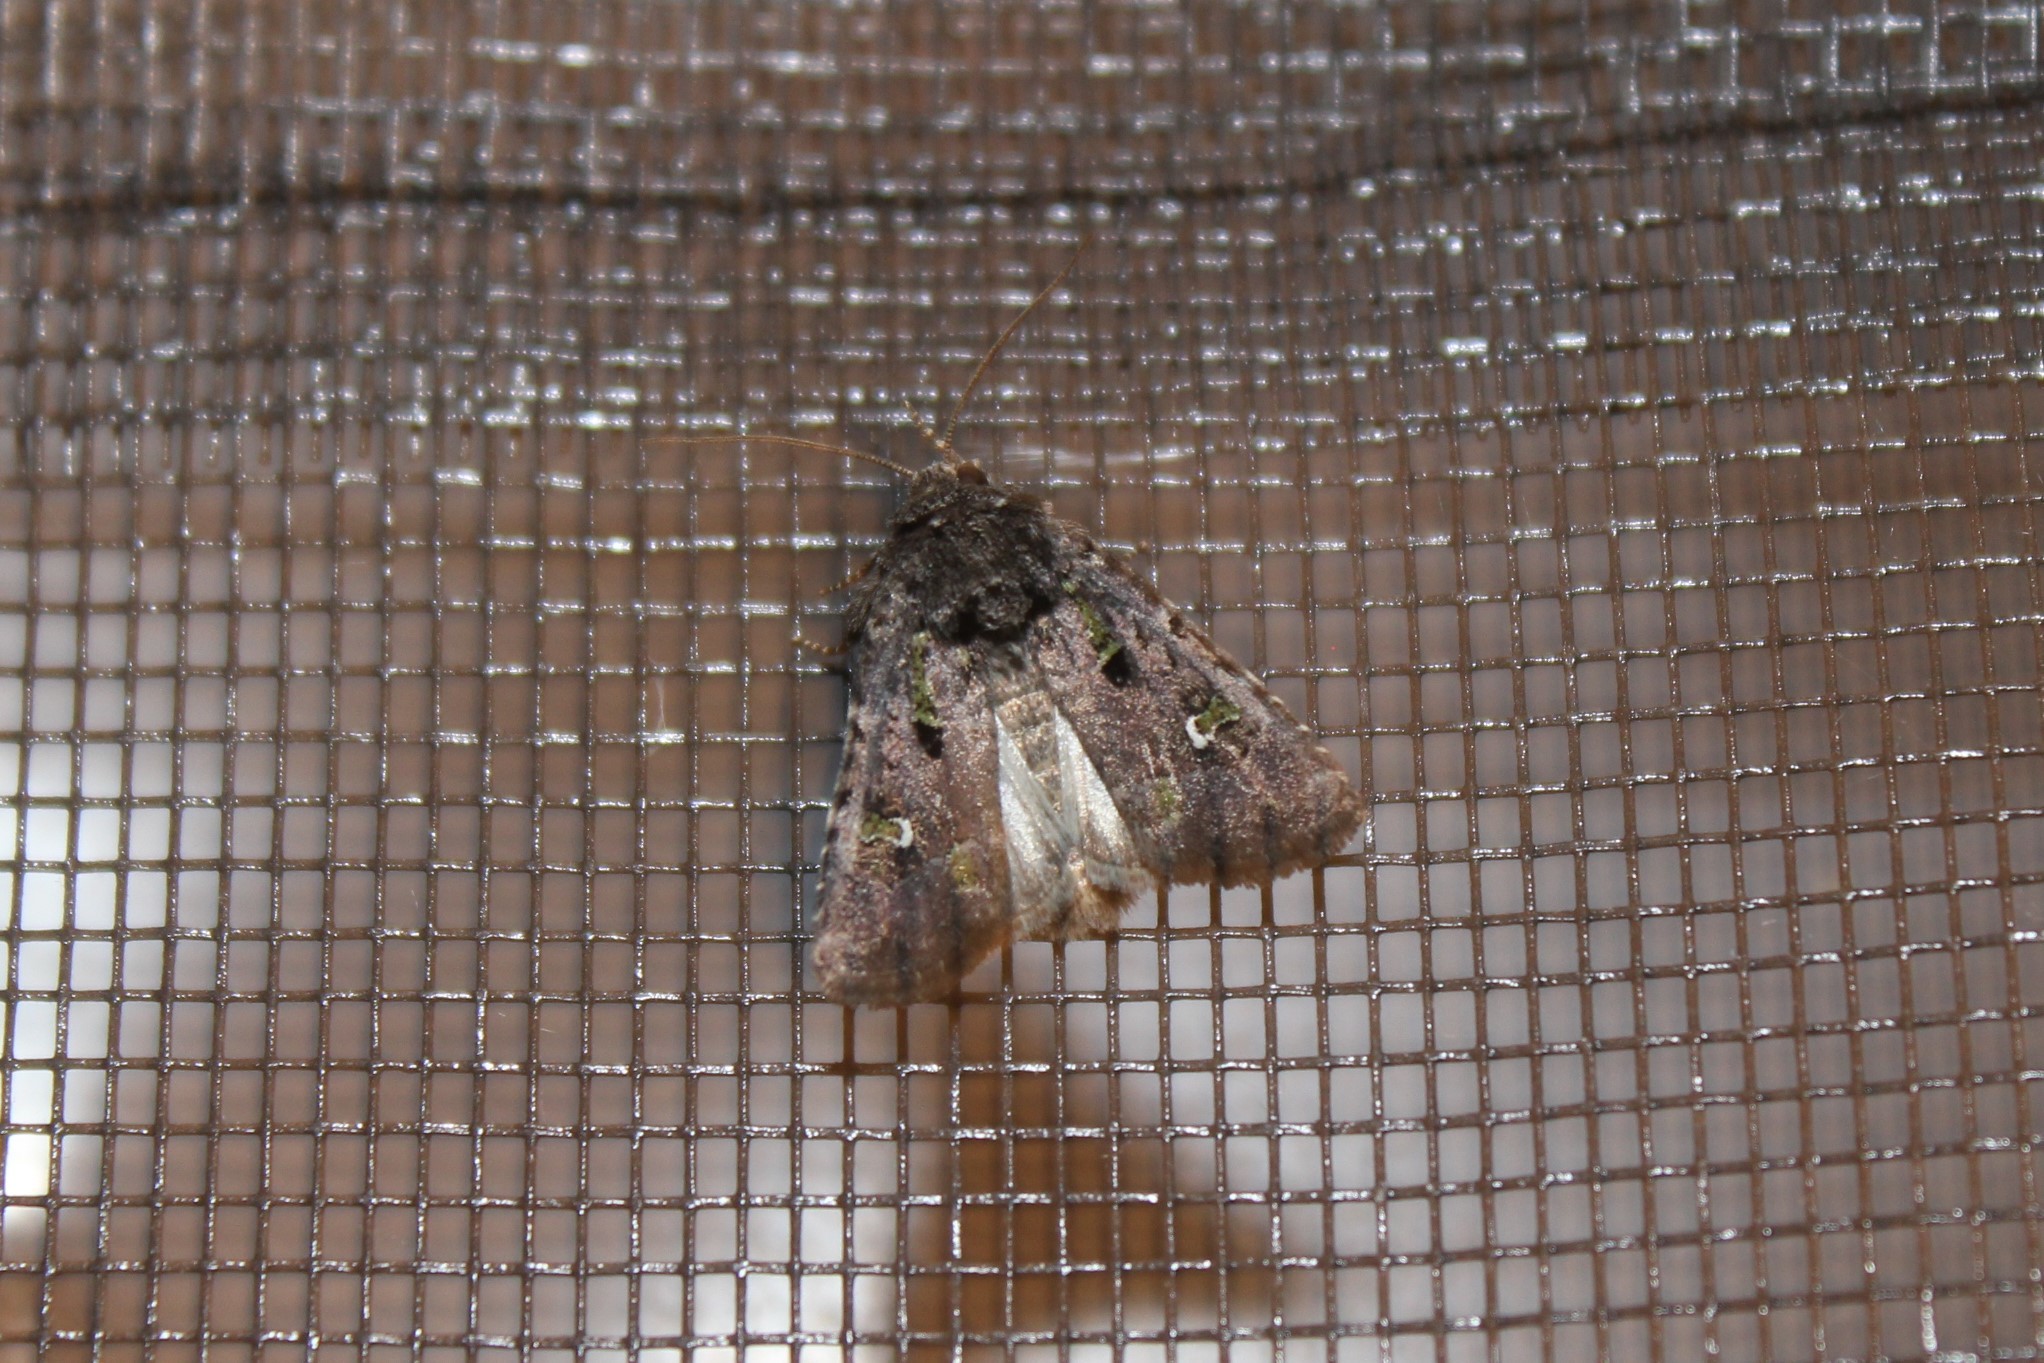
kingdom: Animalia
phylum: Arthropoda
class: Insecta
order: Lepidoptera
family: Noctuidae
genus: Lacinipolia
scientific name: Lacinipolia renigera
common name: Kidney-spotted minor
